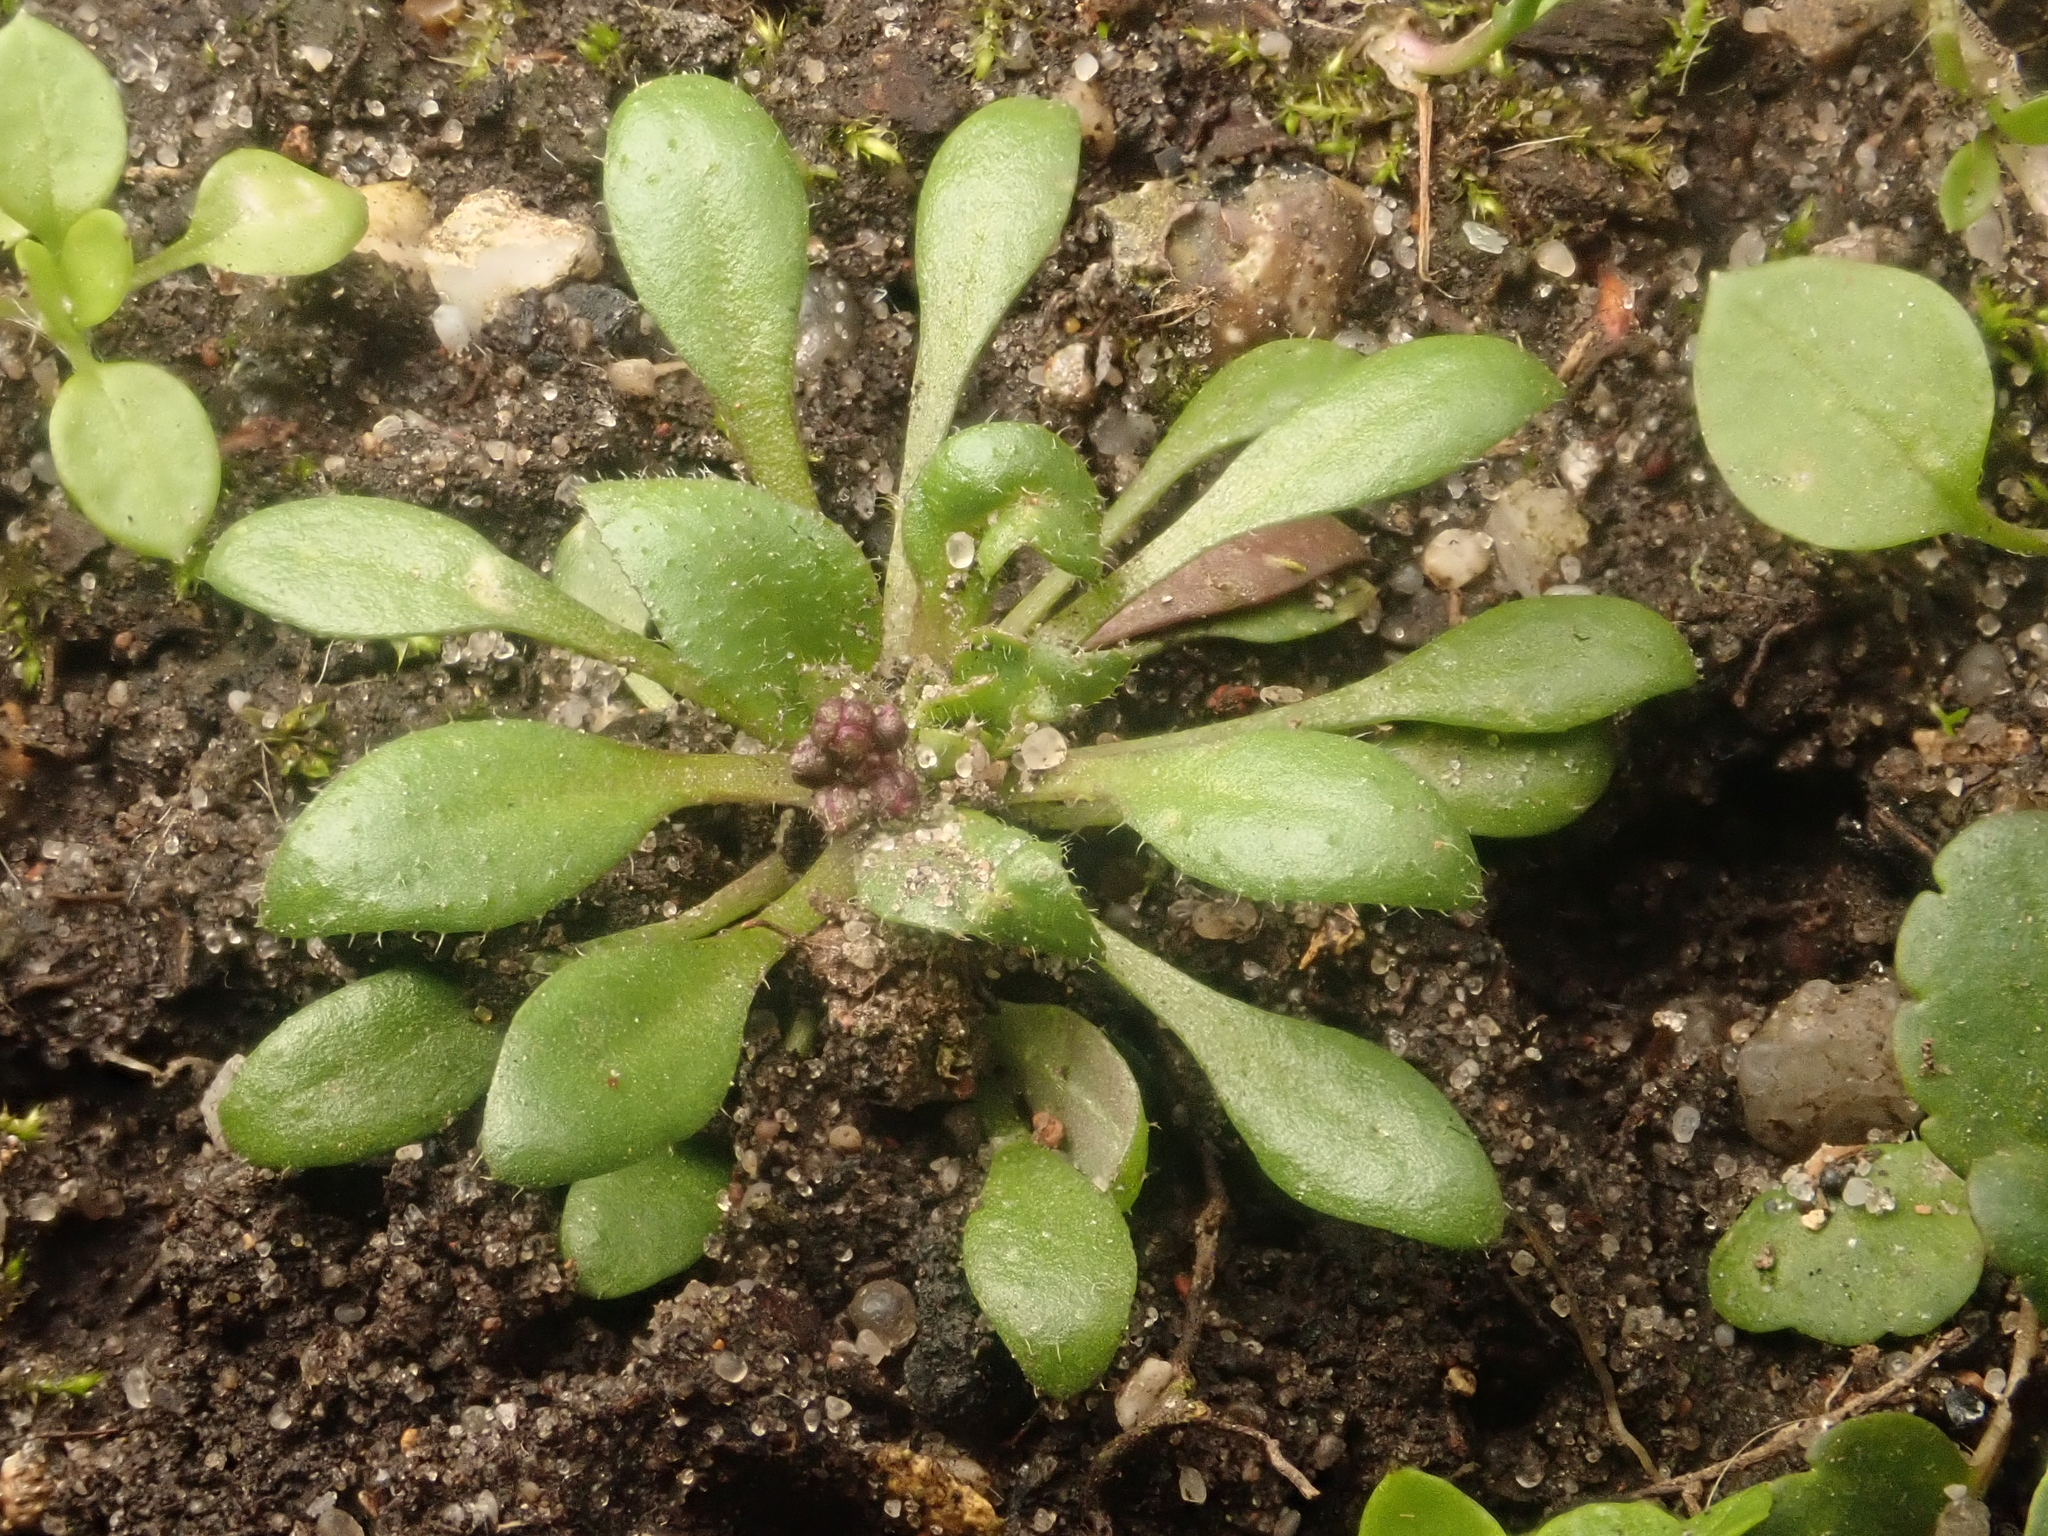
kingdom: Plantae
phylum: Tracheophyta
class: Magnoliopsida
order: Brassicales
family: Brassicaceae
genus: Draba
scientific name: Draba verna
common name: Spring draba
